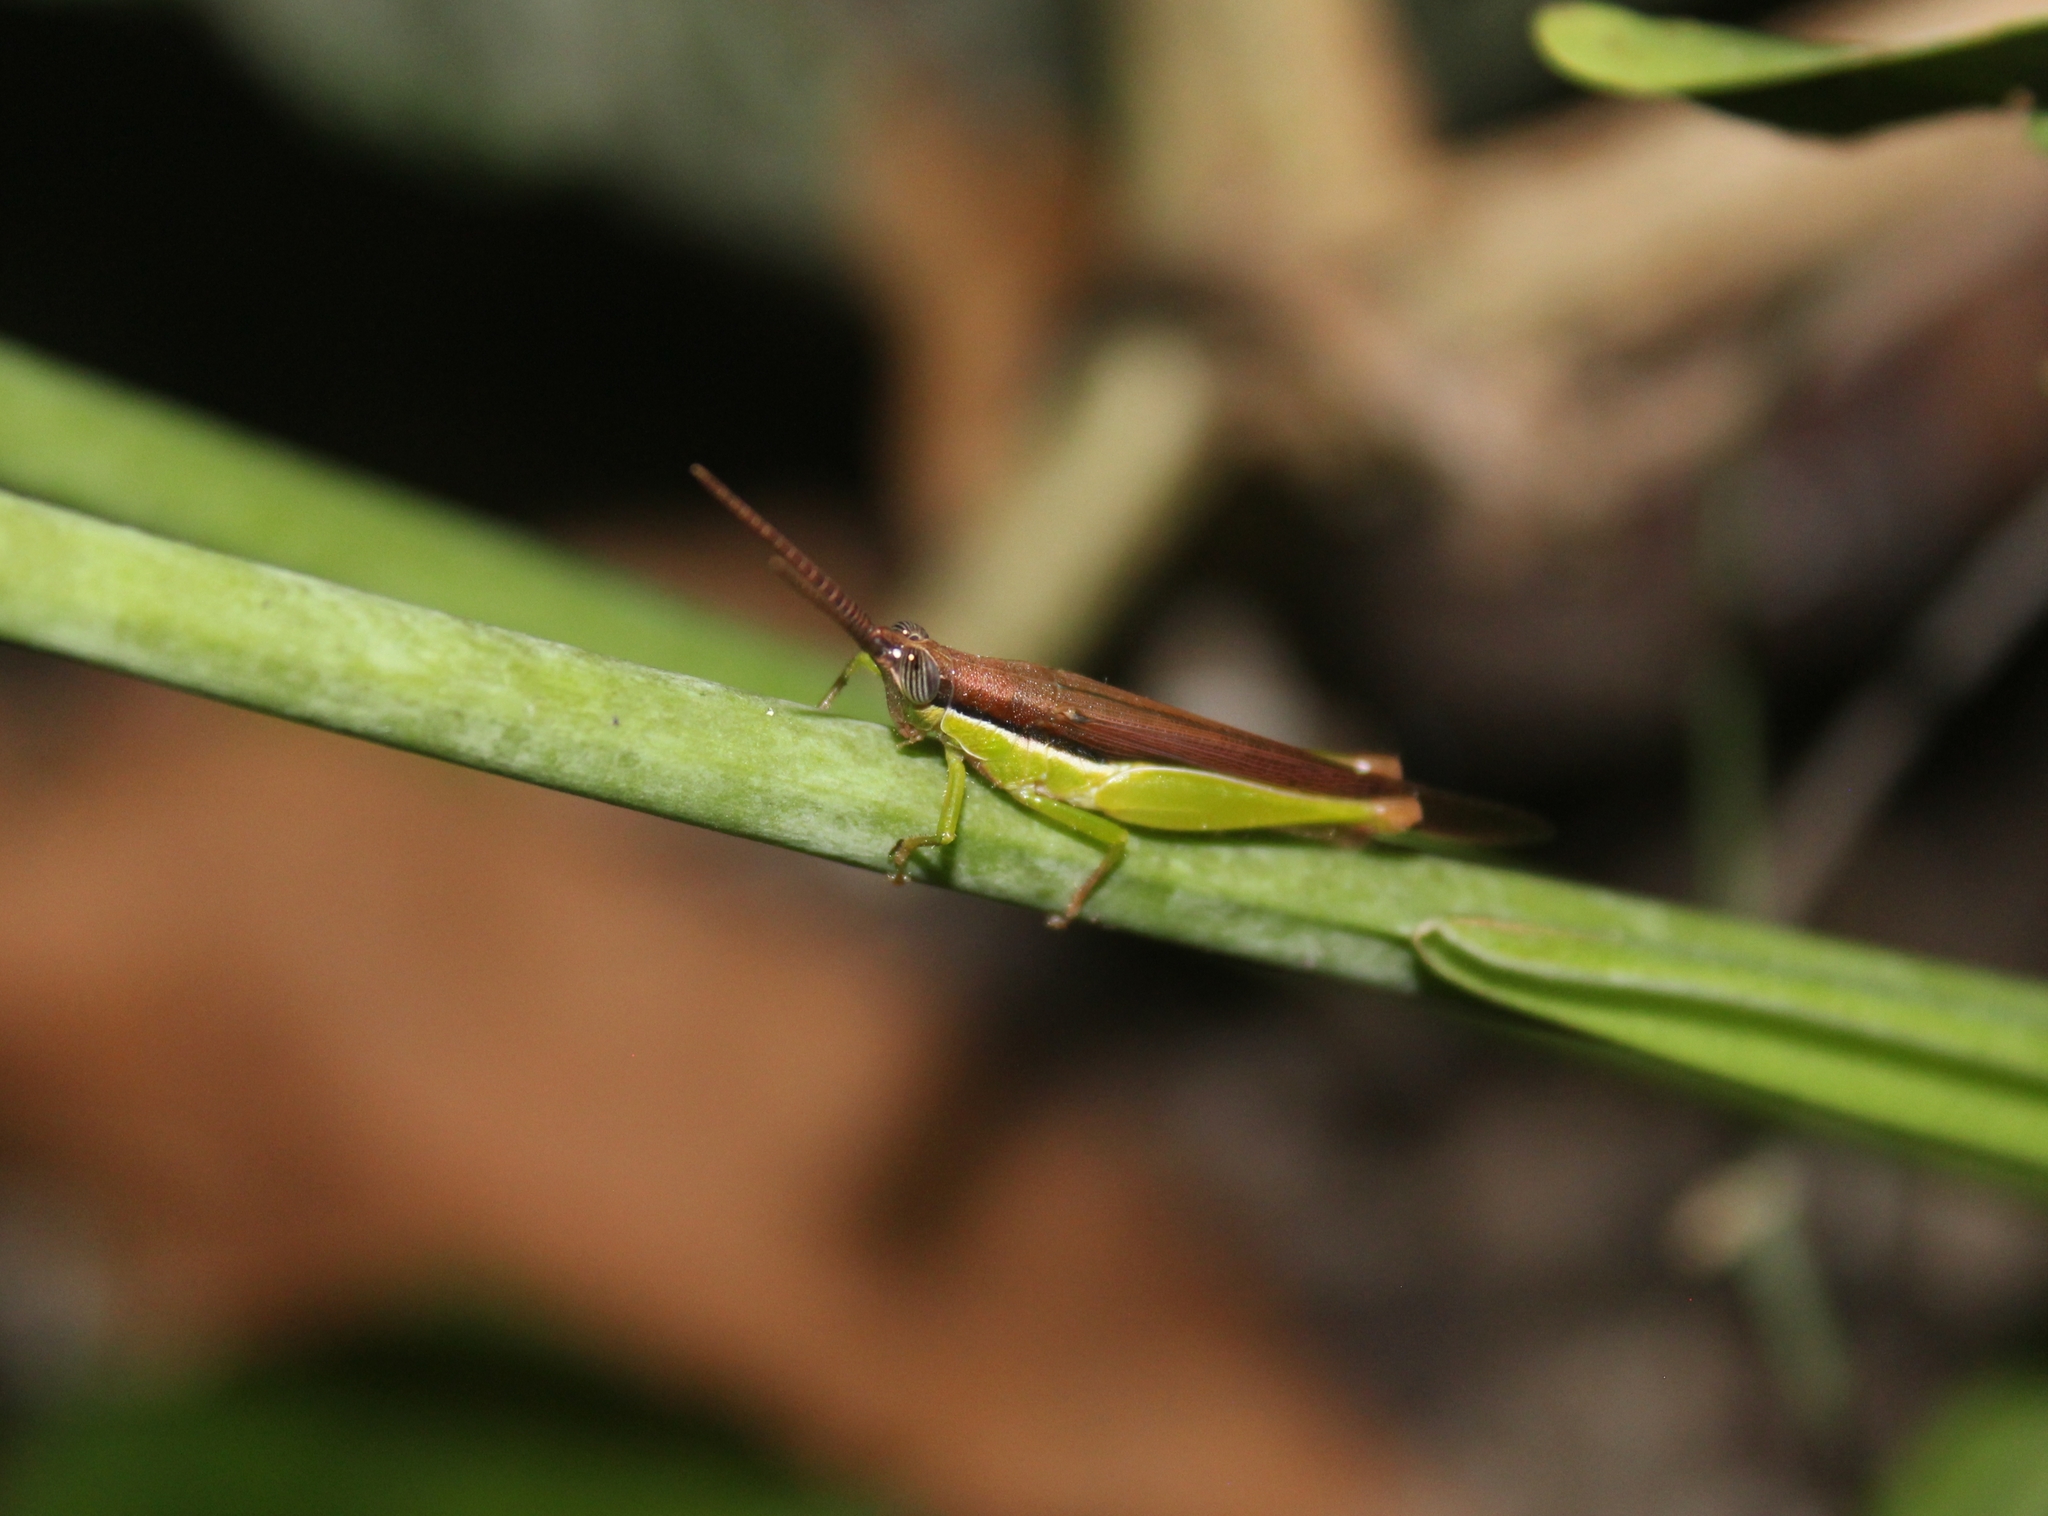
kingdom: Animalia
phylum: Arthropoda
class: Insecta
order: Orthoptera
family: Acrididae
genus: Stenopola
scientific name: Stenopola dorsalis
